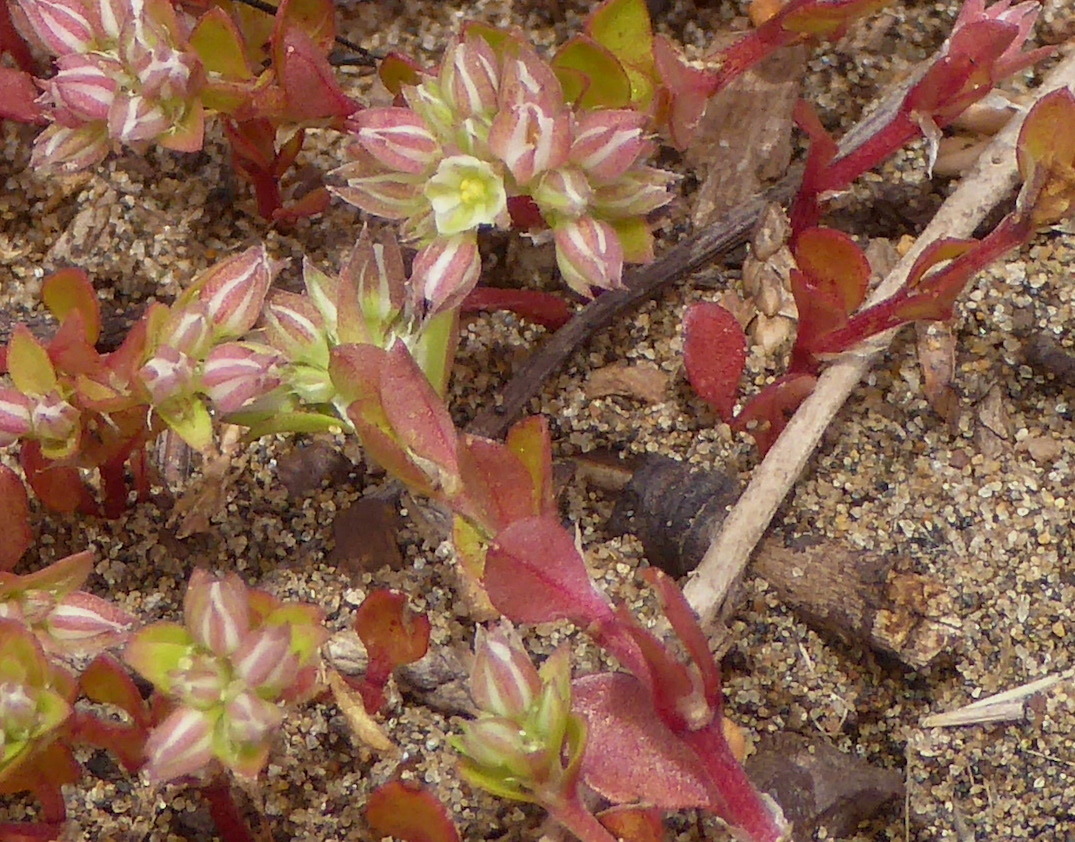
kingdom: Plantae
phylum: Tracheophyta
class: Magnoliopsida
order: Caryophyllales
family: Caryophyllaceae
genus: Polycarpon
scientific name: Polycarpon tetraphyllum
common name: Four-leaved all-seed
